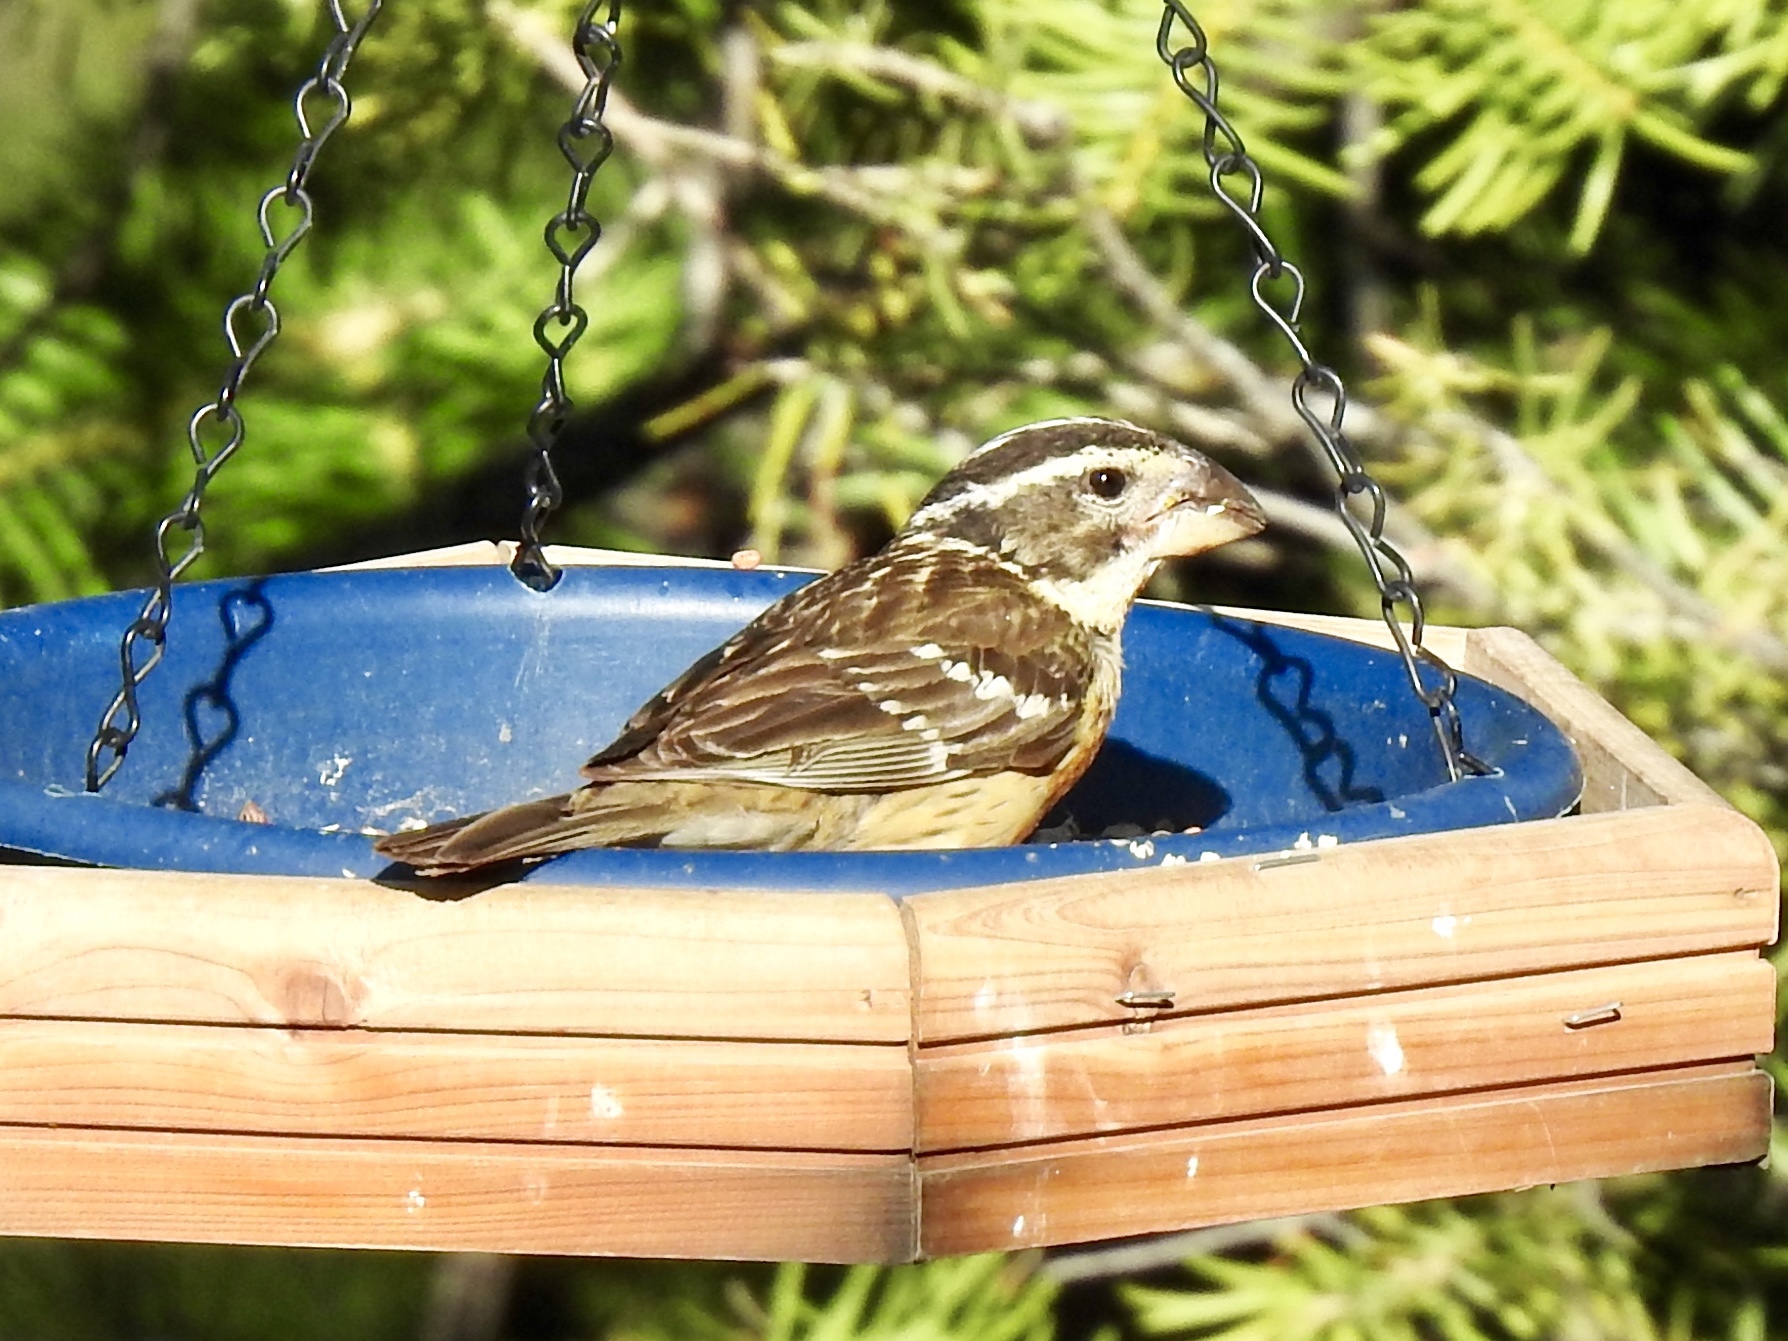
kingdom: Animalia
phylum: Chordata
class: Aves
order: Passeriformes
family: Cardinalidae
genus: Pheucticus
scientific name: Pheucticus melanocephalus
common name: Black-headed grosbeak
